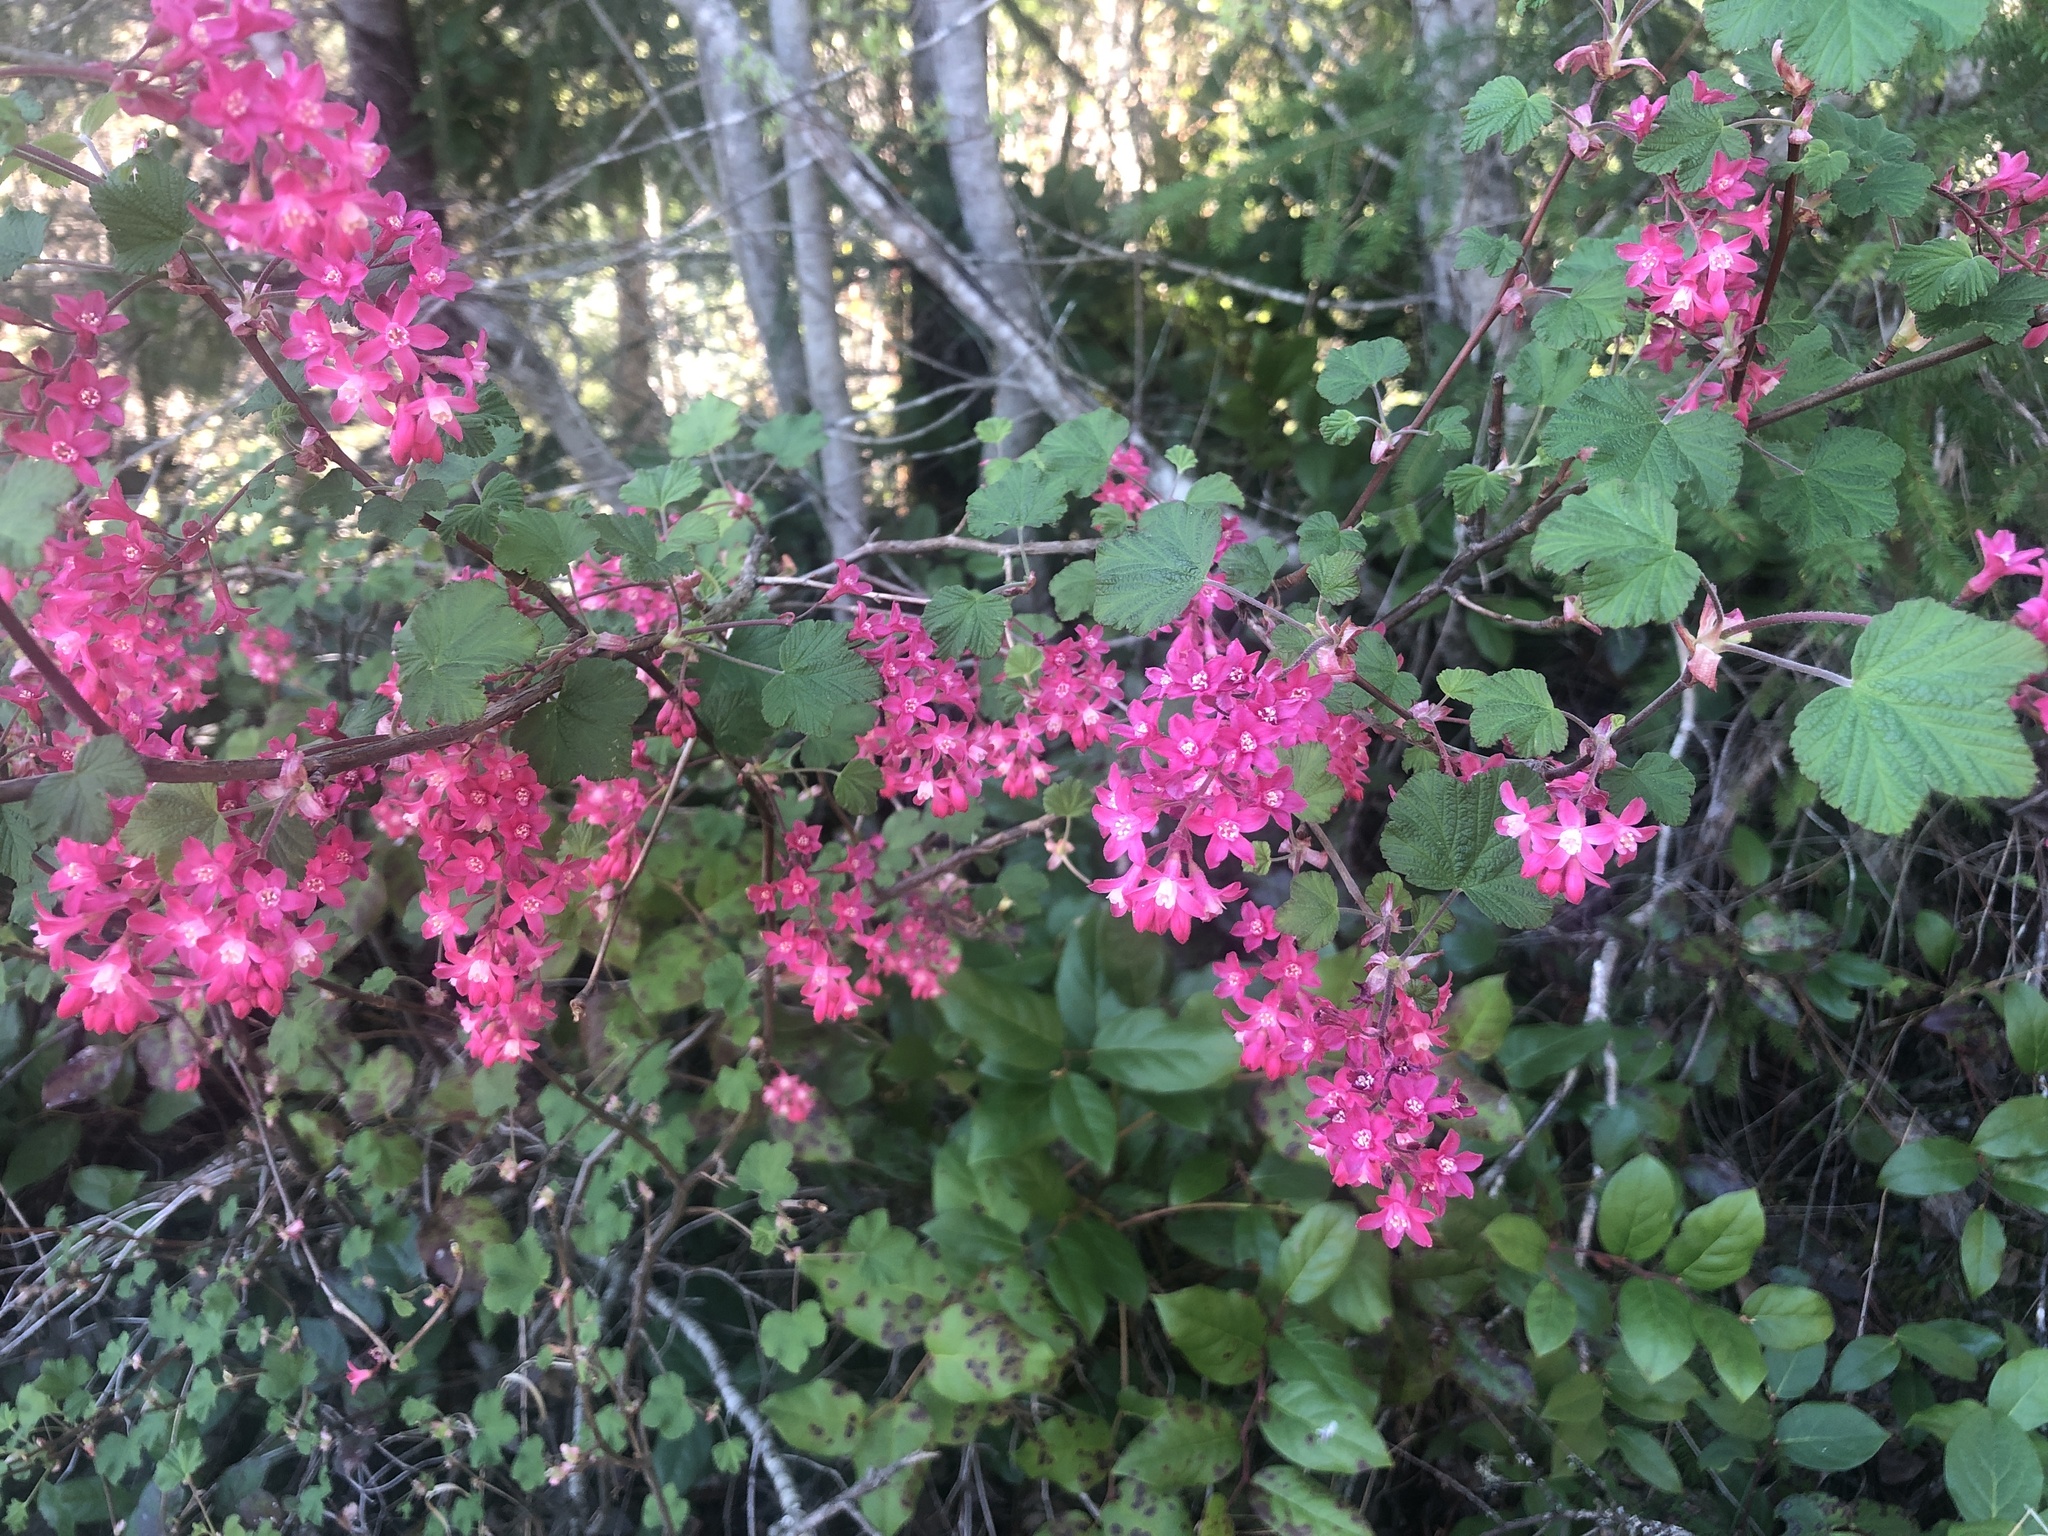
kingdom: Plantae
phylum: Tracheophyta
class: Magnoliopsida
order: Saxifragales
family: Grossulariaceae
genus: Ribes
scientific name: Ribes sanguineum
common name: Flowering currant
